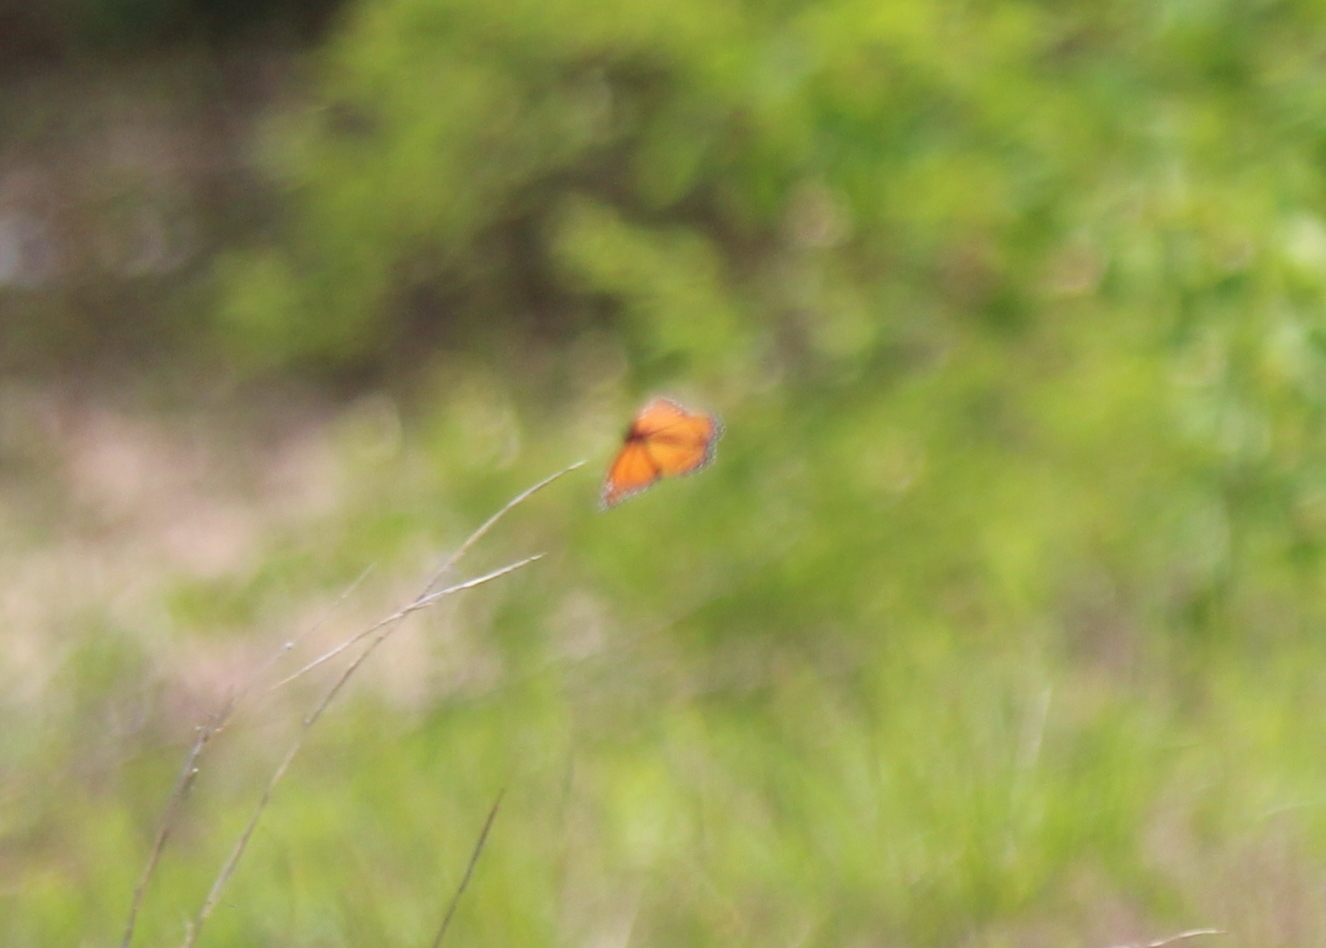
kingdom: Animalia
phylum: Arthropoda
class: Insecta
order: Lepidoptera
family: Nymphalidae
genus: Limenitis
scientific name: Limenitis archippus
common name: Viceroy
